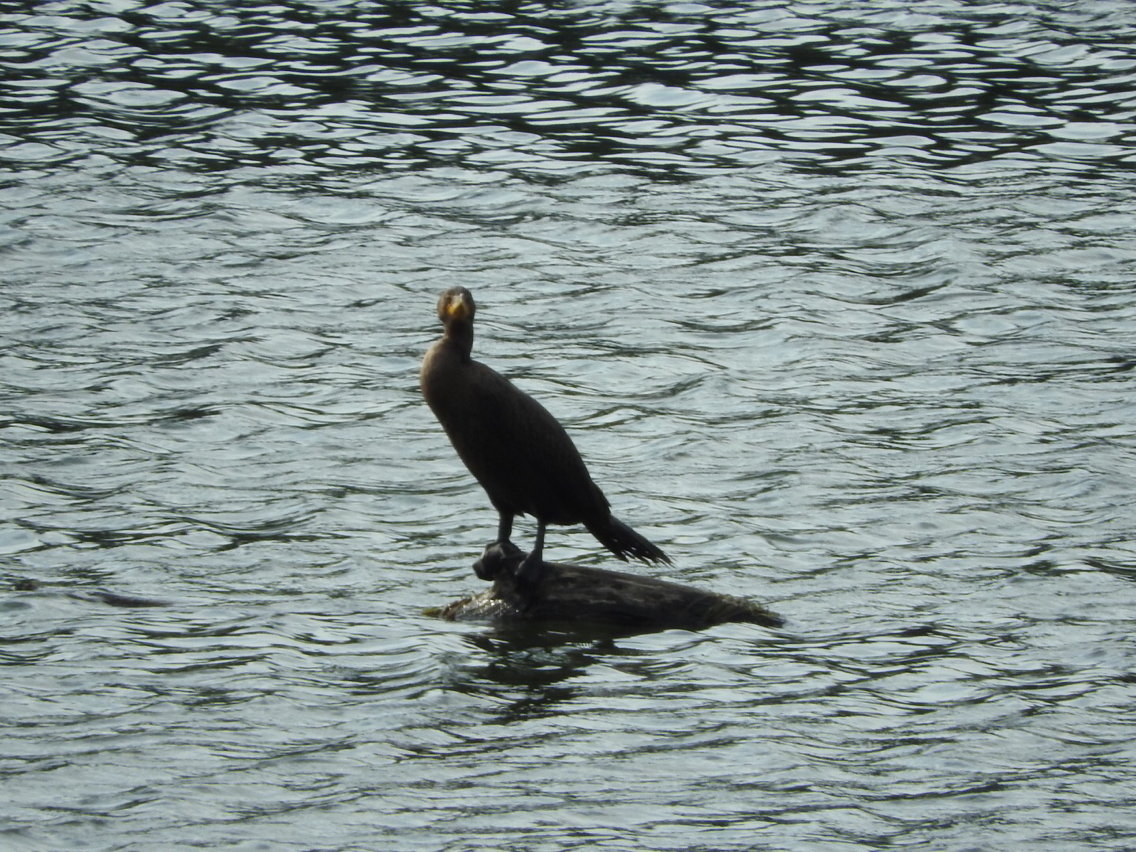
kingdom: Animalia
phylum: Chordata
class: Aves
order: Suliformes
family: Phalacrocoracidae
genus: Phalacrocorax
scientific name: Phalacrocorax auritus
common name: Double-crested cormorant
